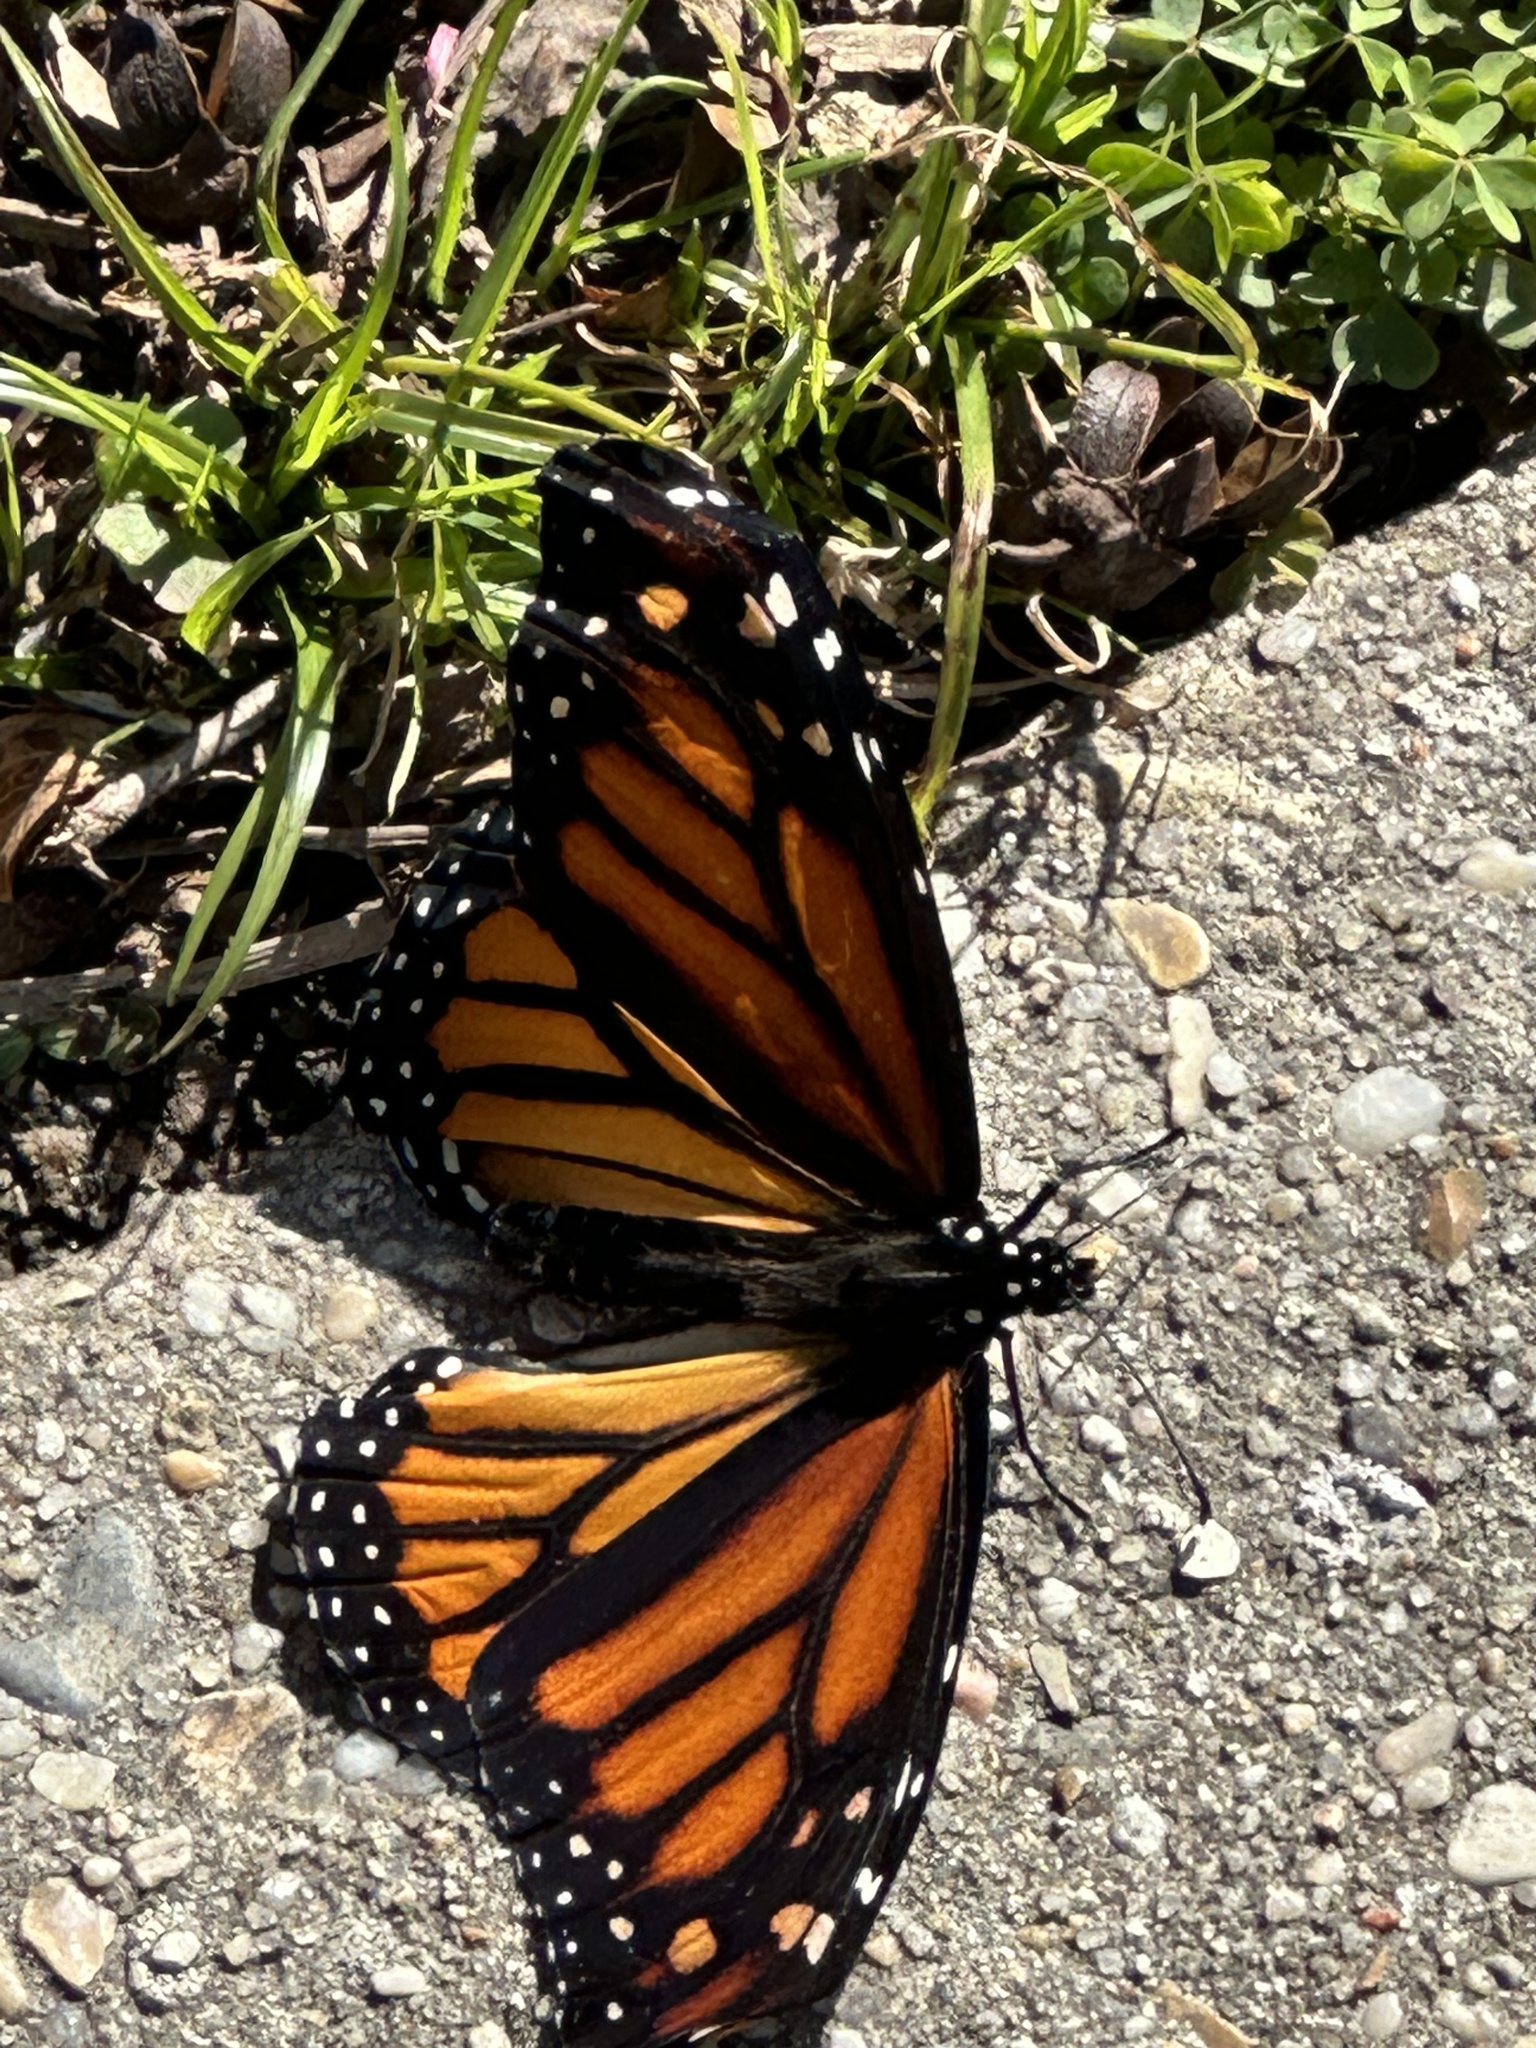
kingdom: Animalia
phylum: Arthropoda
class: Insecta
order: Lepidoptera
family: Nymphalidae
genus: Danaus
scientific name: Danaus plexippus
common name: Monarch
